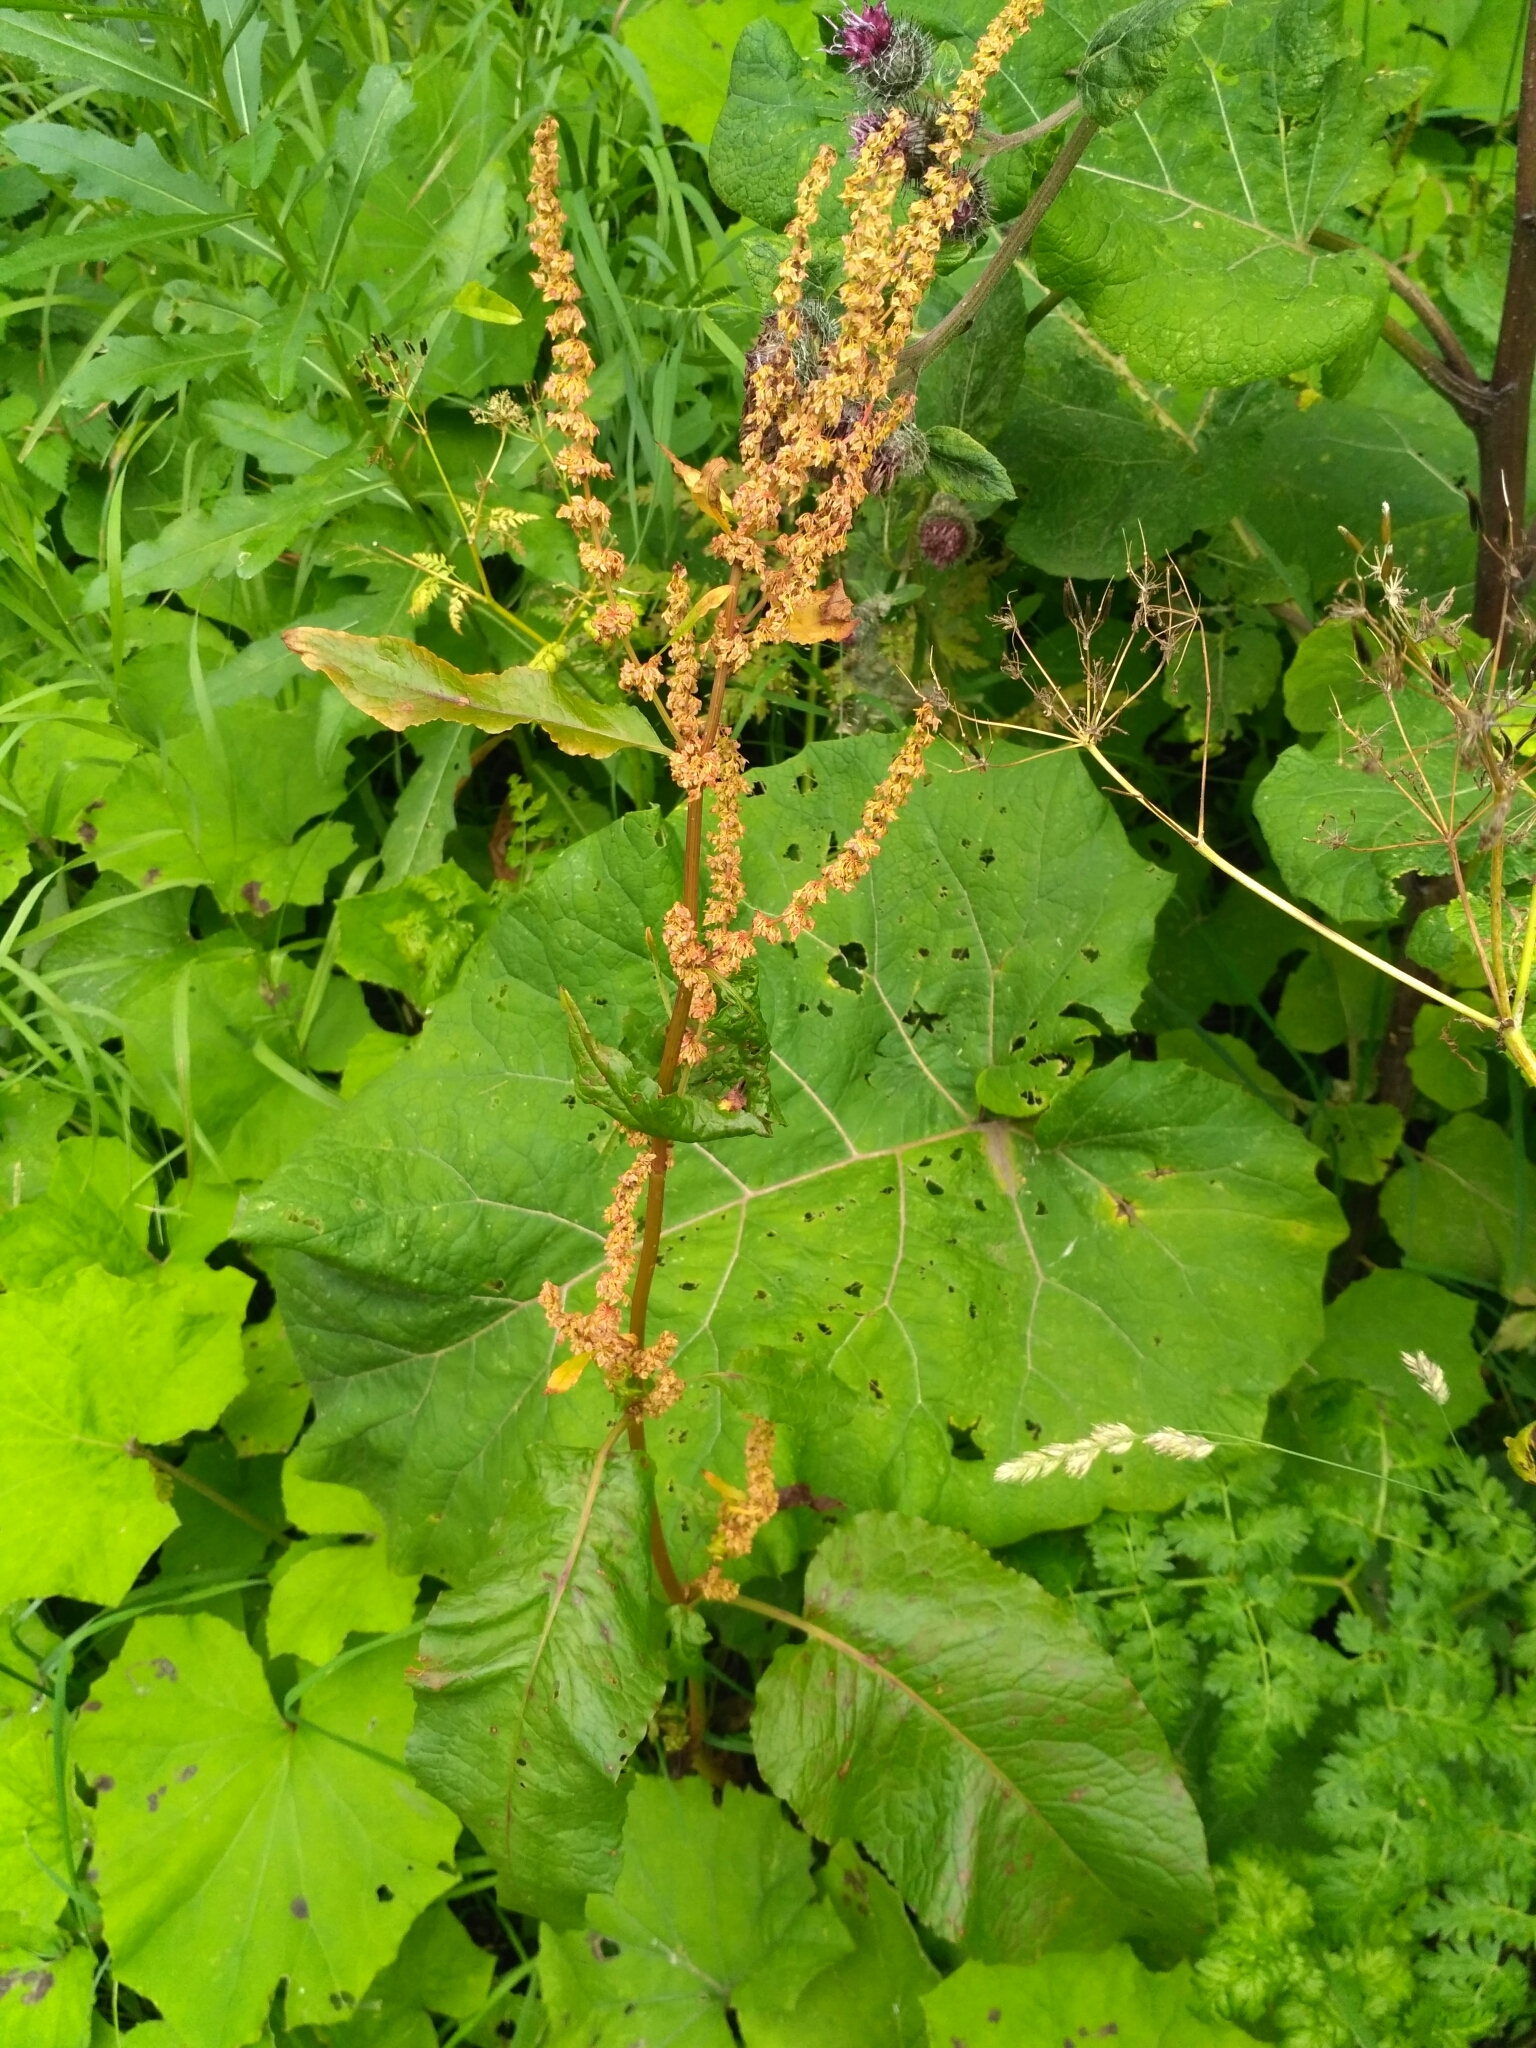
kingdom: Plantae
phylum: Tracheophyta
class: Magnoliopsida
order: Caryophyllales
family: Polygonaceae
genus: Rumex
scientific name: Rumex obtusifolius
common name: Bitter dock
